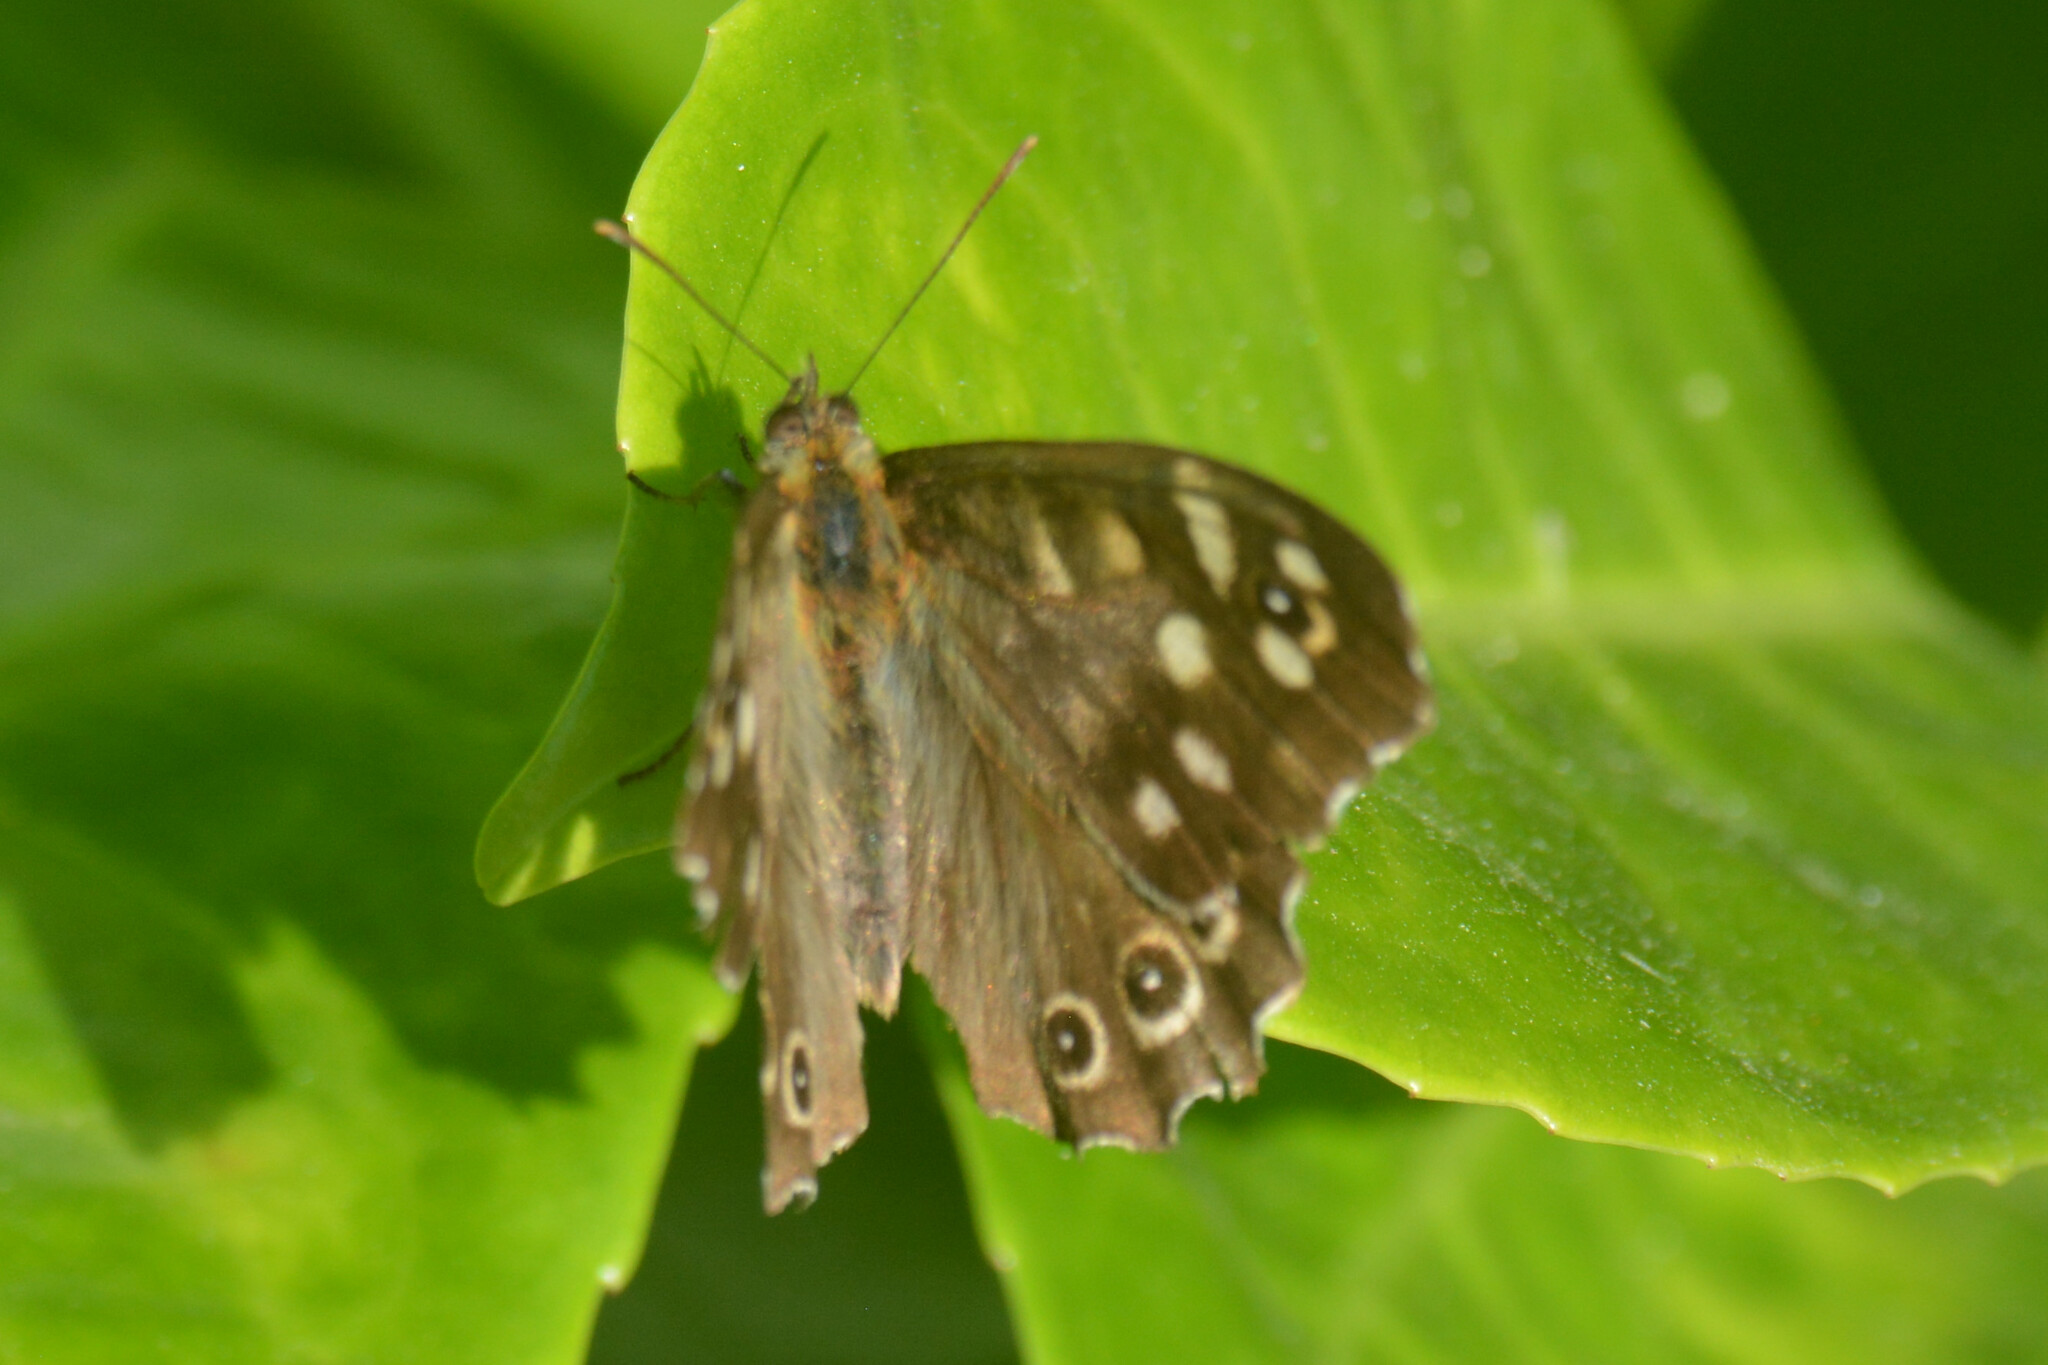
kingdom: Animalia
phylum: Arthropoda
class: Insecta
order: Lepidoptera
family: Nymphalidae
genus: Pararge
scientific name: Pararge aegeria
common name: Speckled wood
